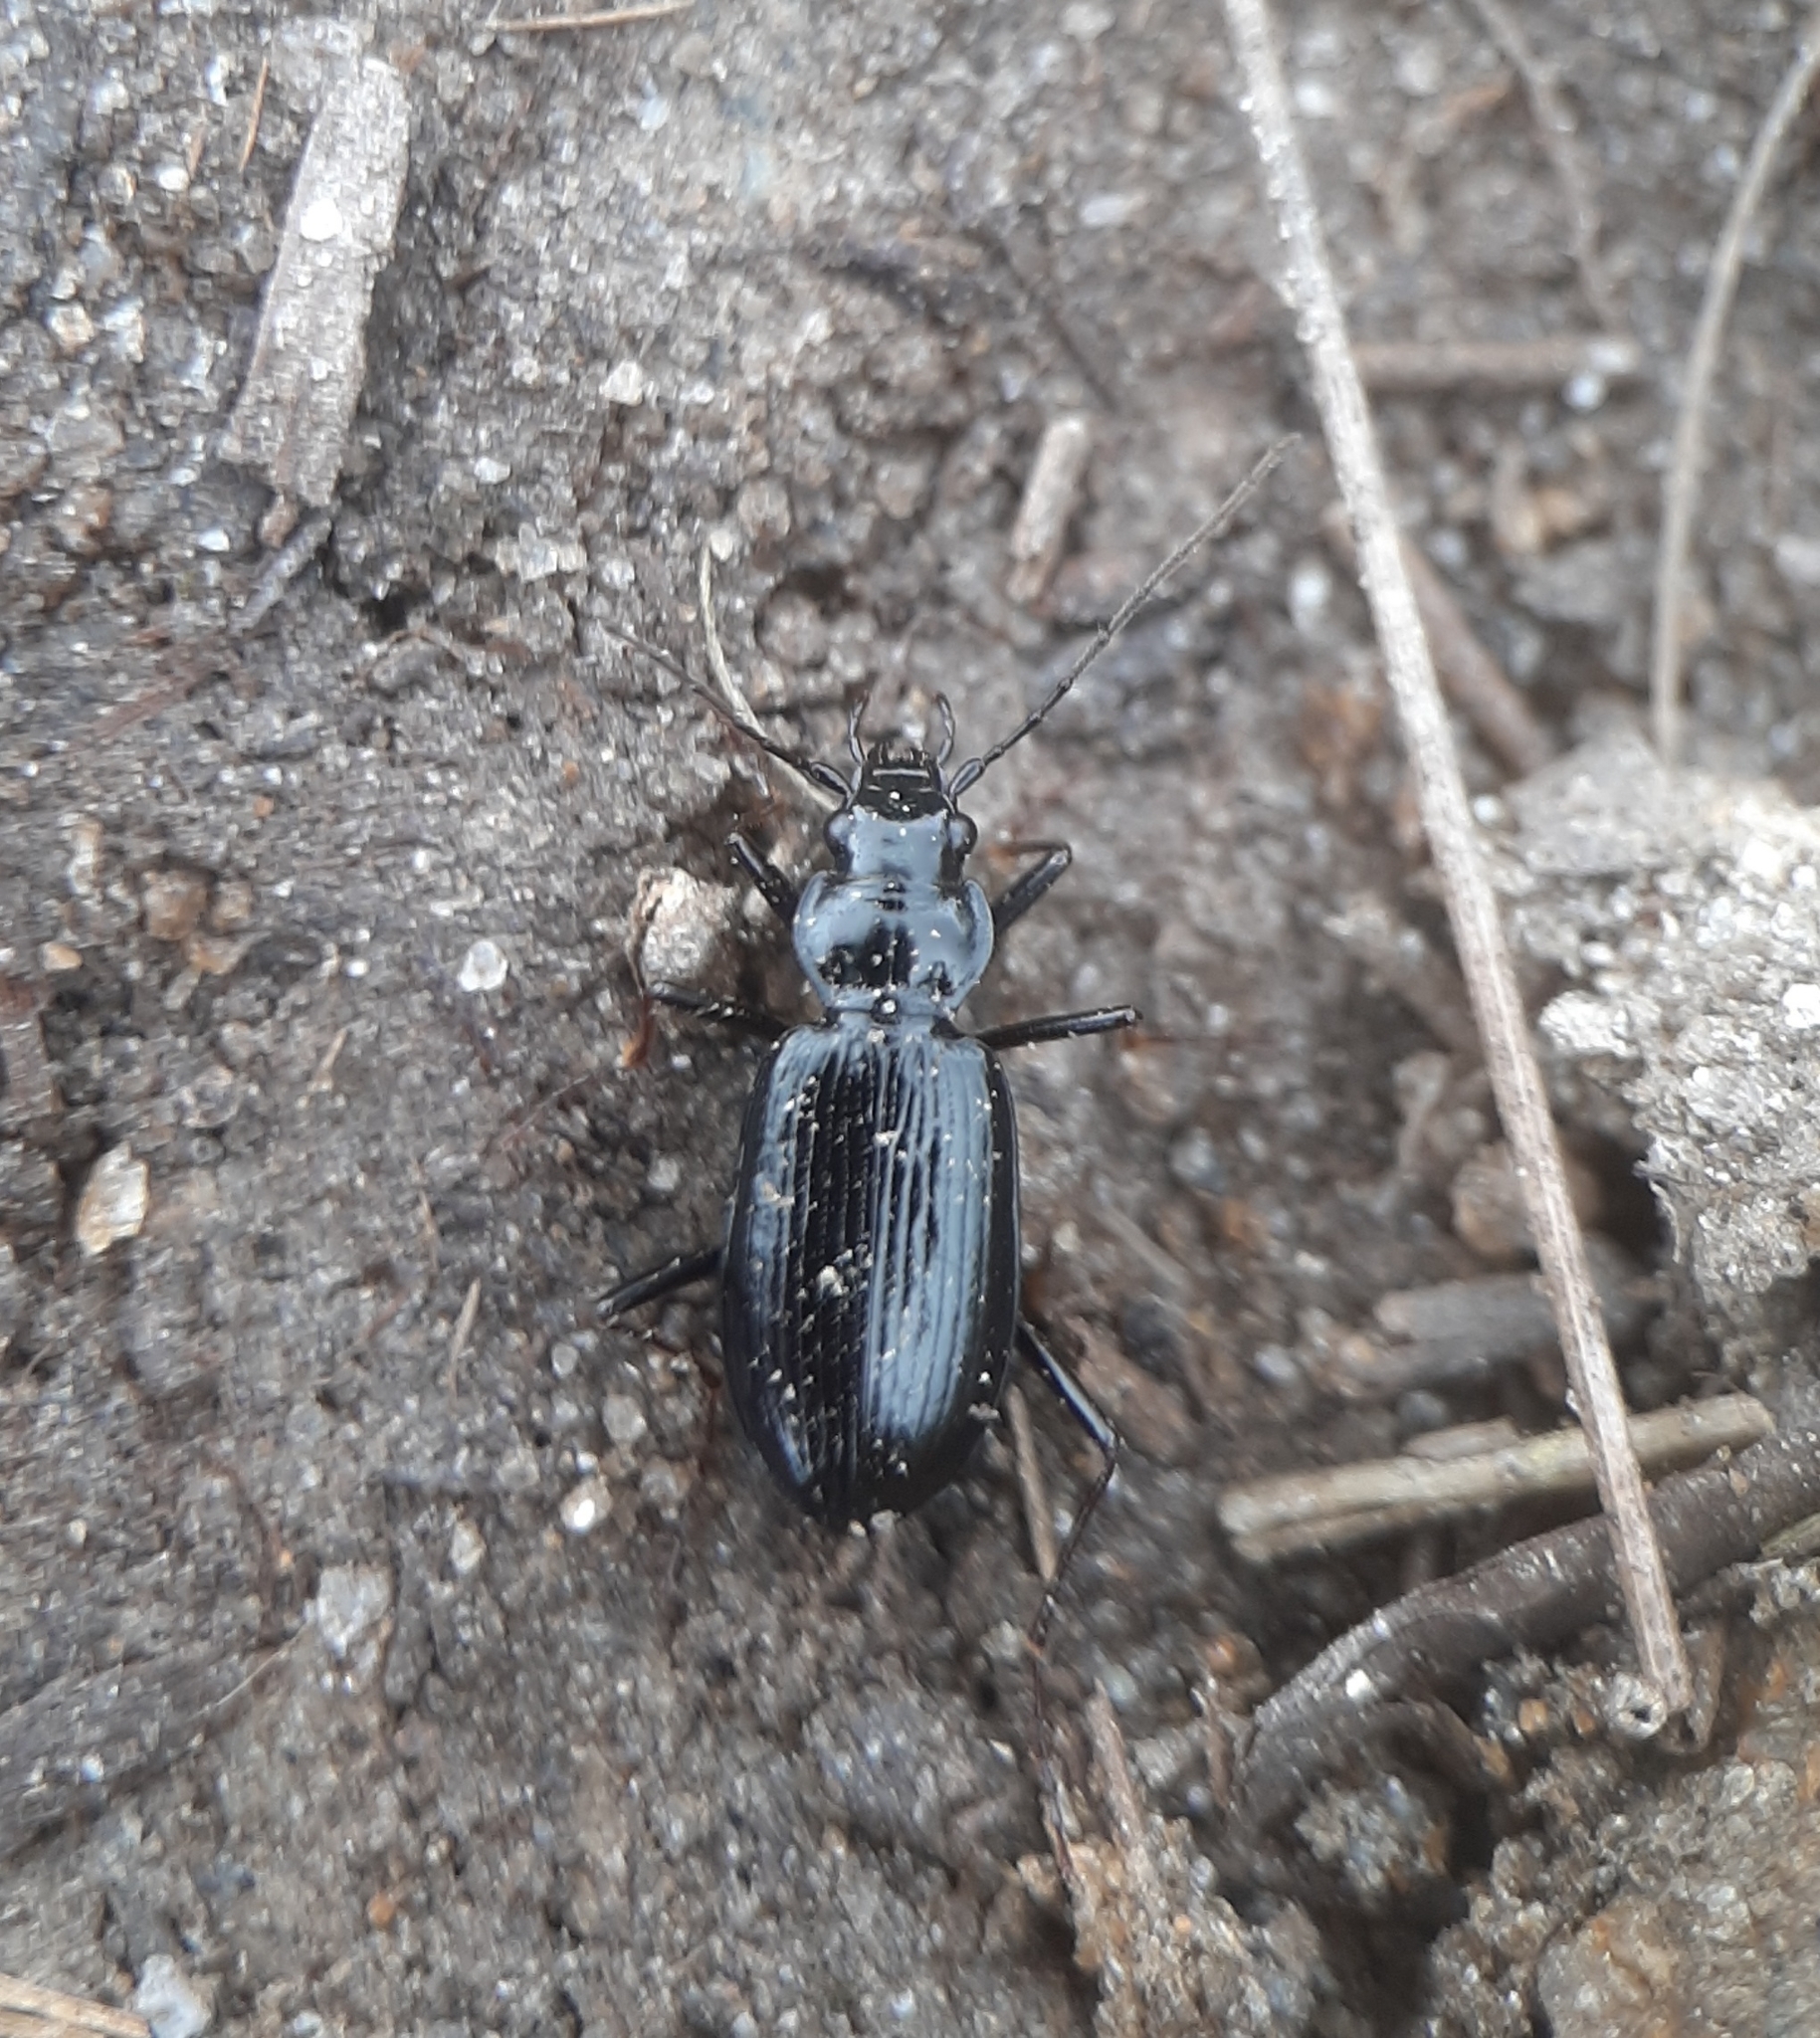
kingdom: Animalia
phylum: Arthropoda
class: Insecta
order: Coleoptera
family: Carabidae
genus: Nebria
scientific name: Nebria suturalis
